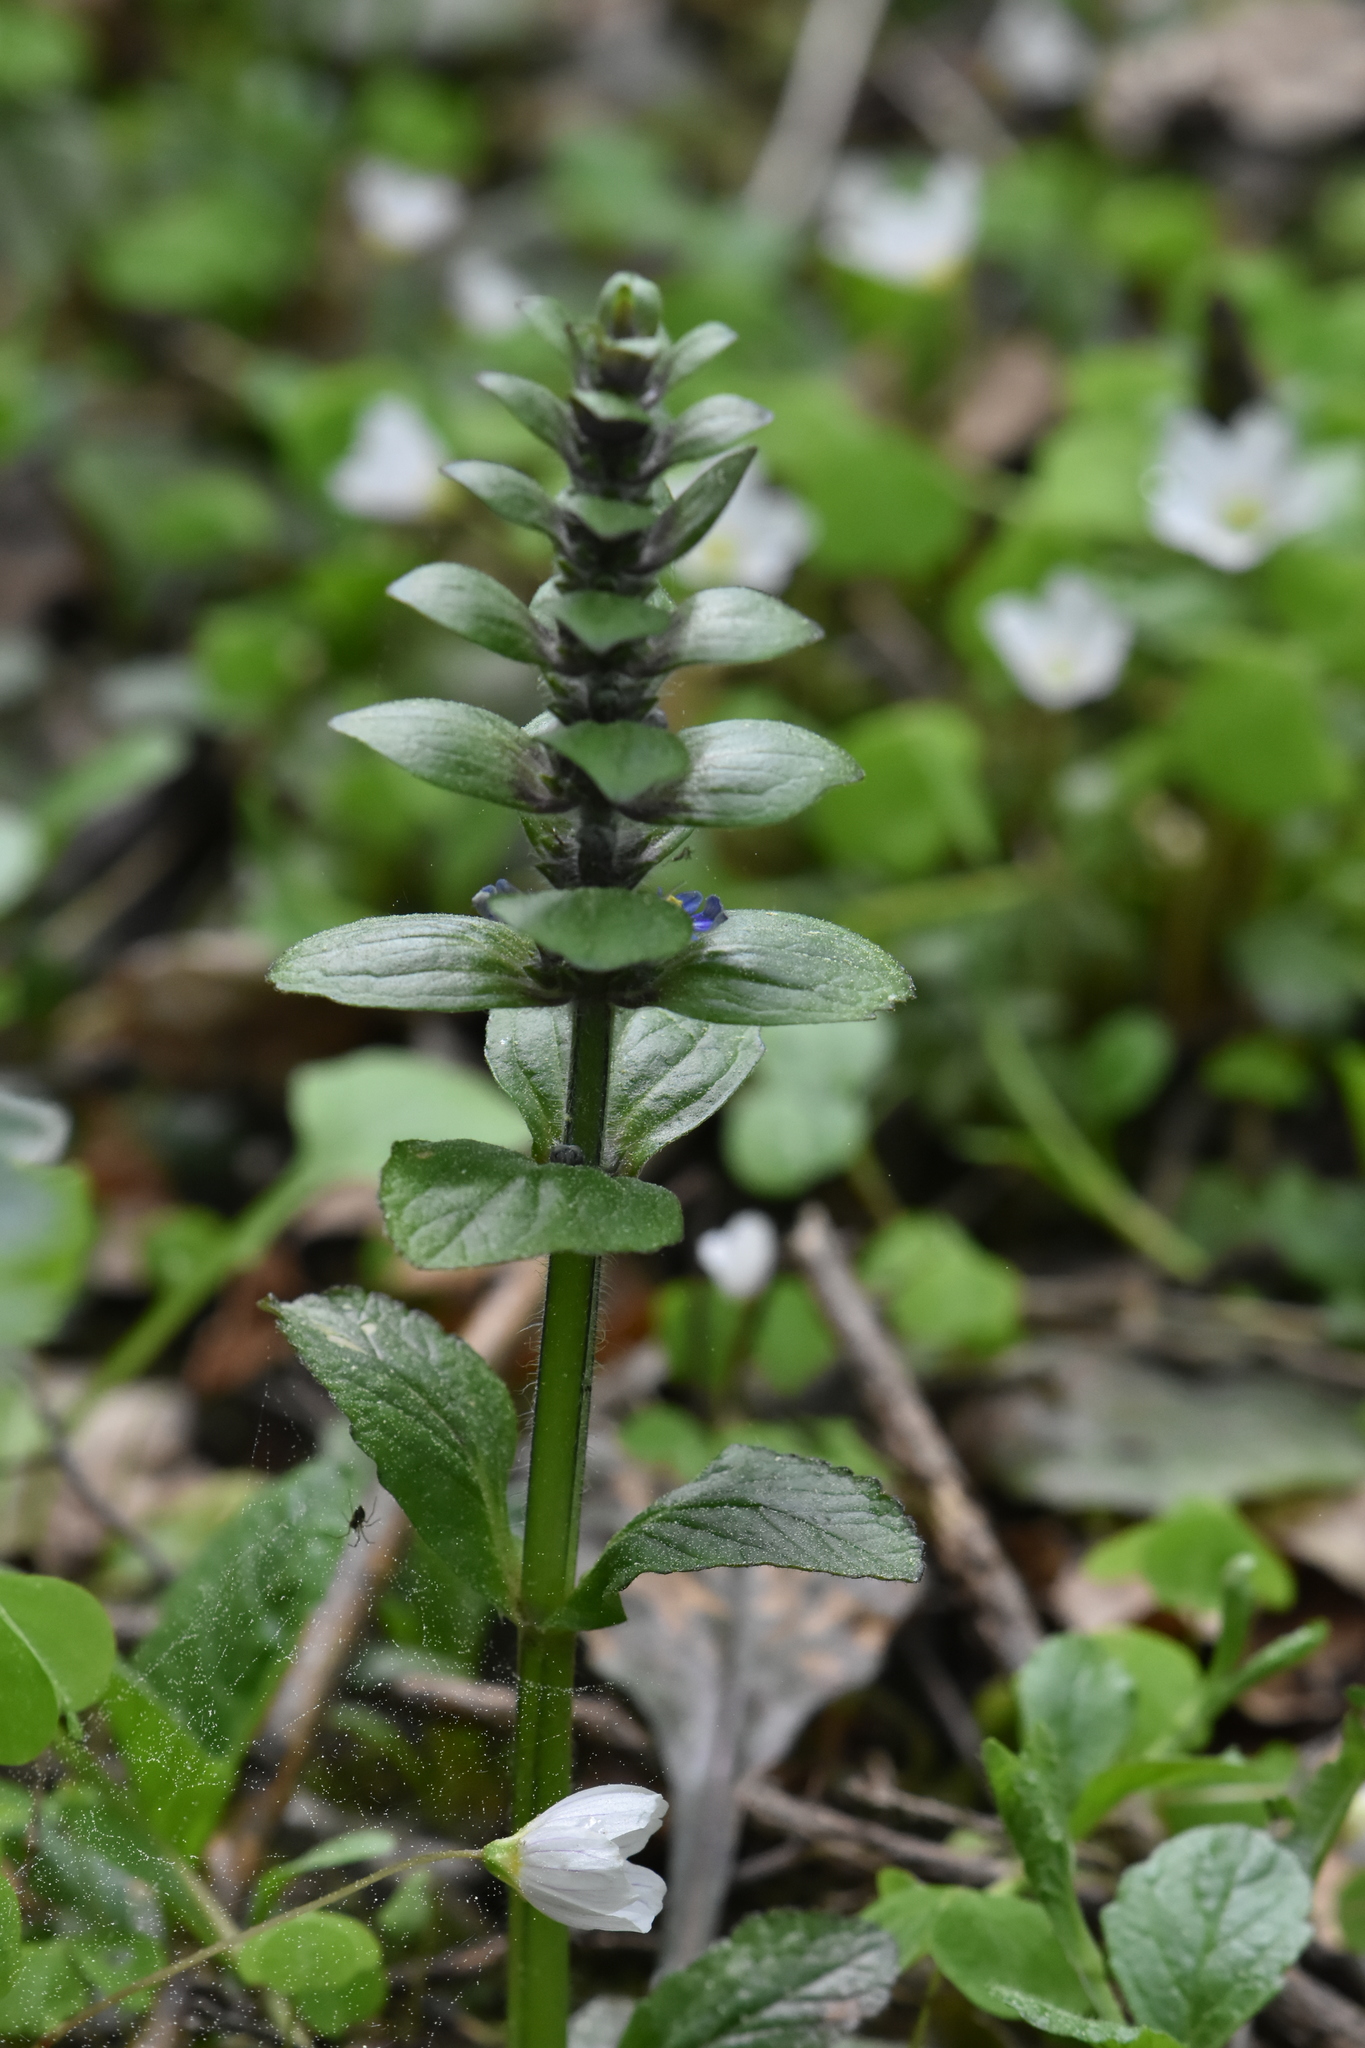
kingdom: Plantae
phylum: Tracheophyta
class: Magnoliopsida
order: Lamiales
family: Lamiaceae
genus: Ajuga
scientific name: Ajuga reptans
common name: Bugle
